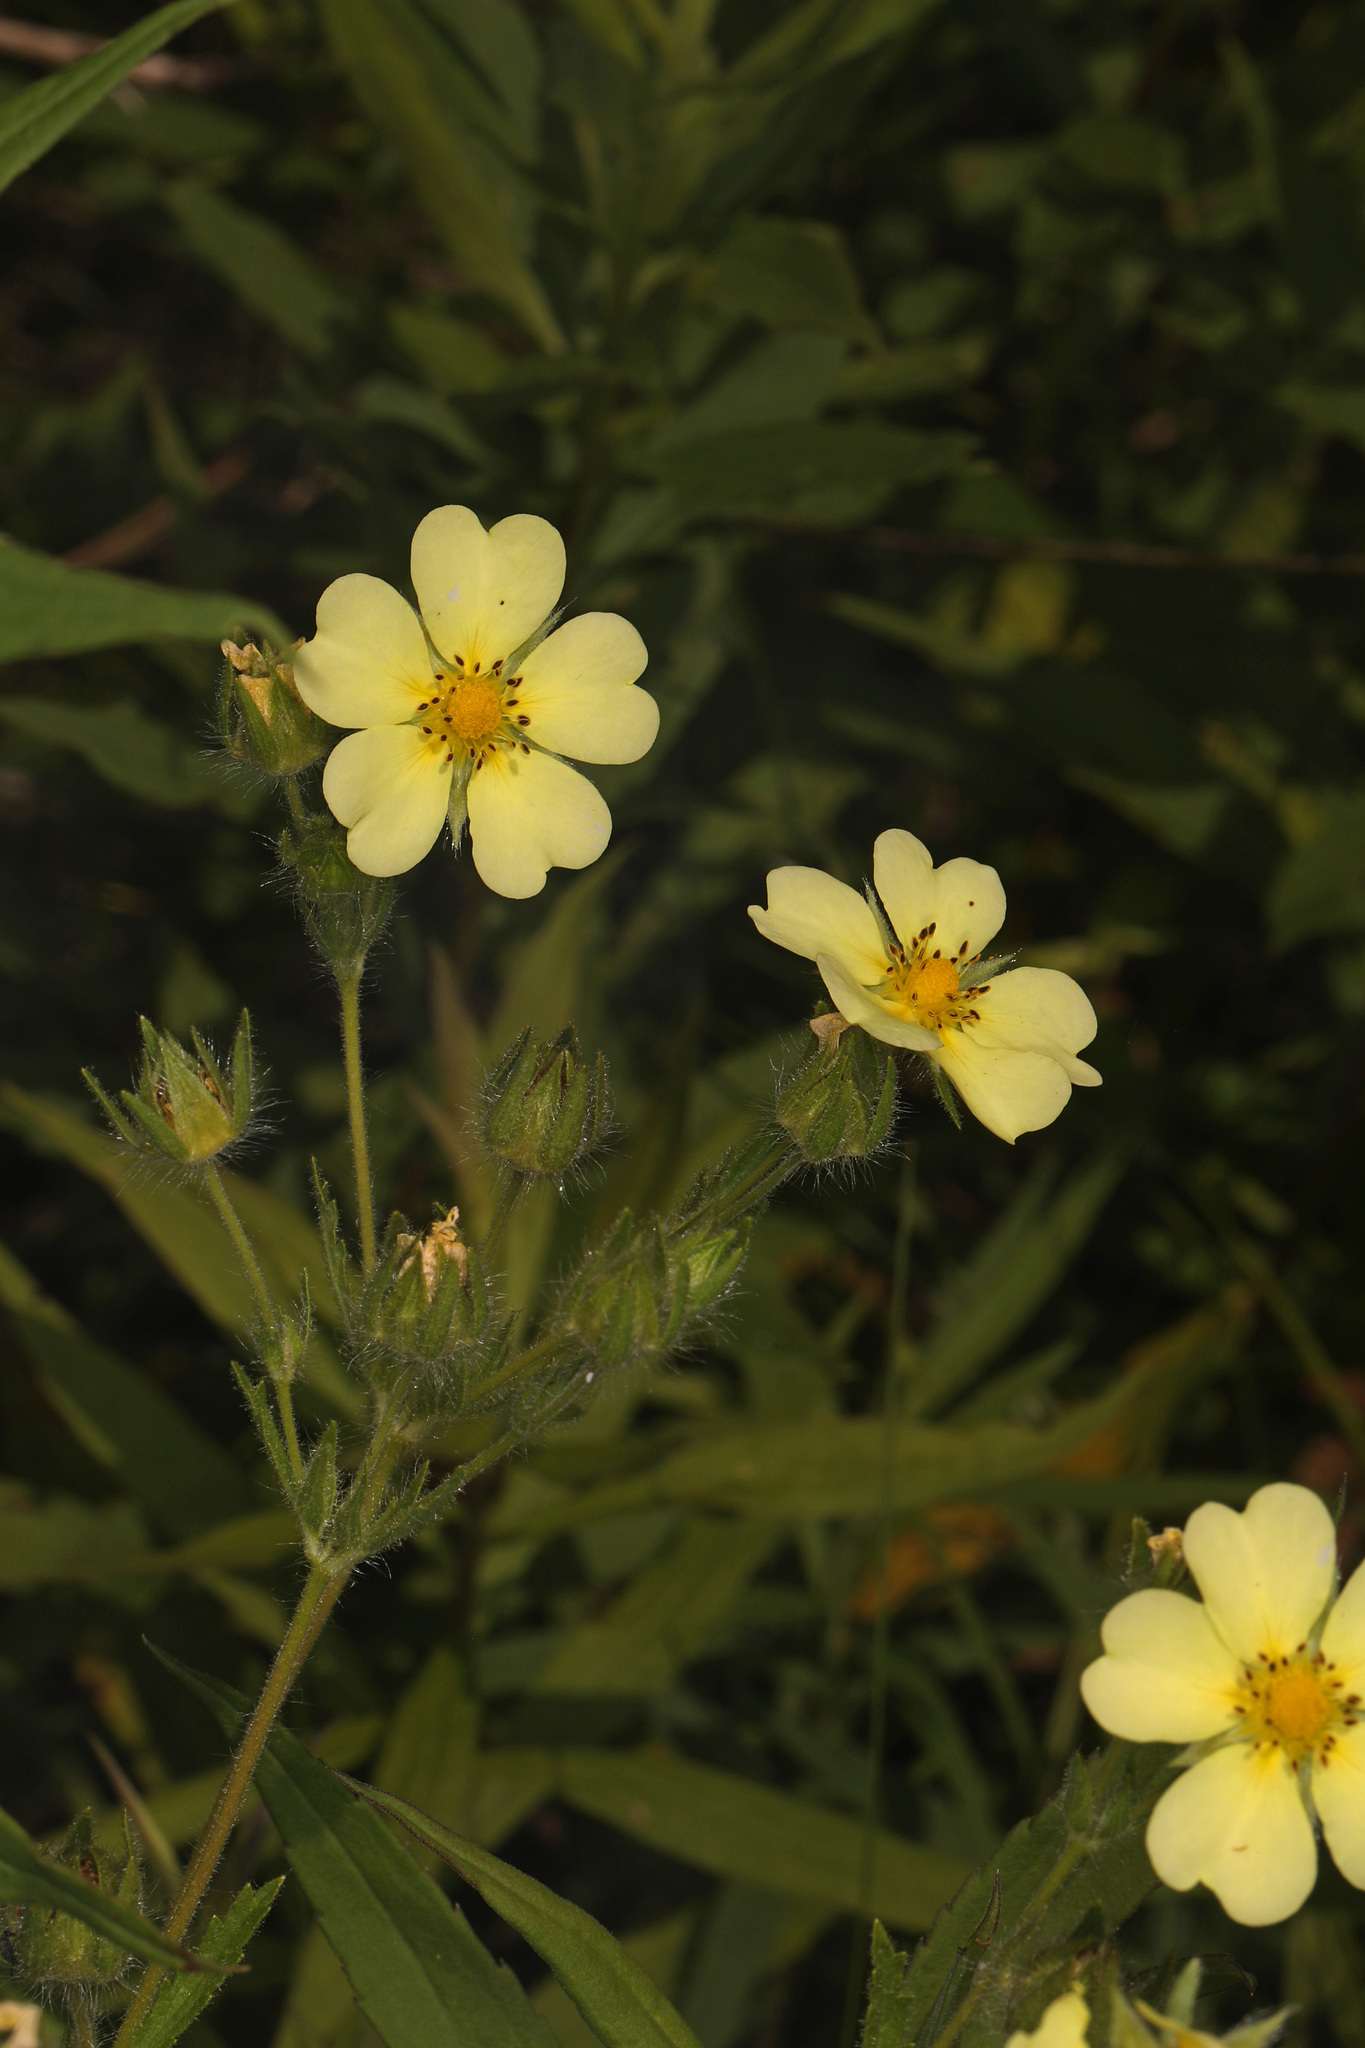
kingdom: Plantae
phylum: Tracheophyta
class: Magnoliopsida
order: Rosales
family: Rosaceae
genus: Potentilla
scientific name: Potentilla recta
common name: Sulphur cinquefoil
